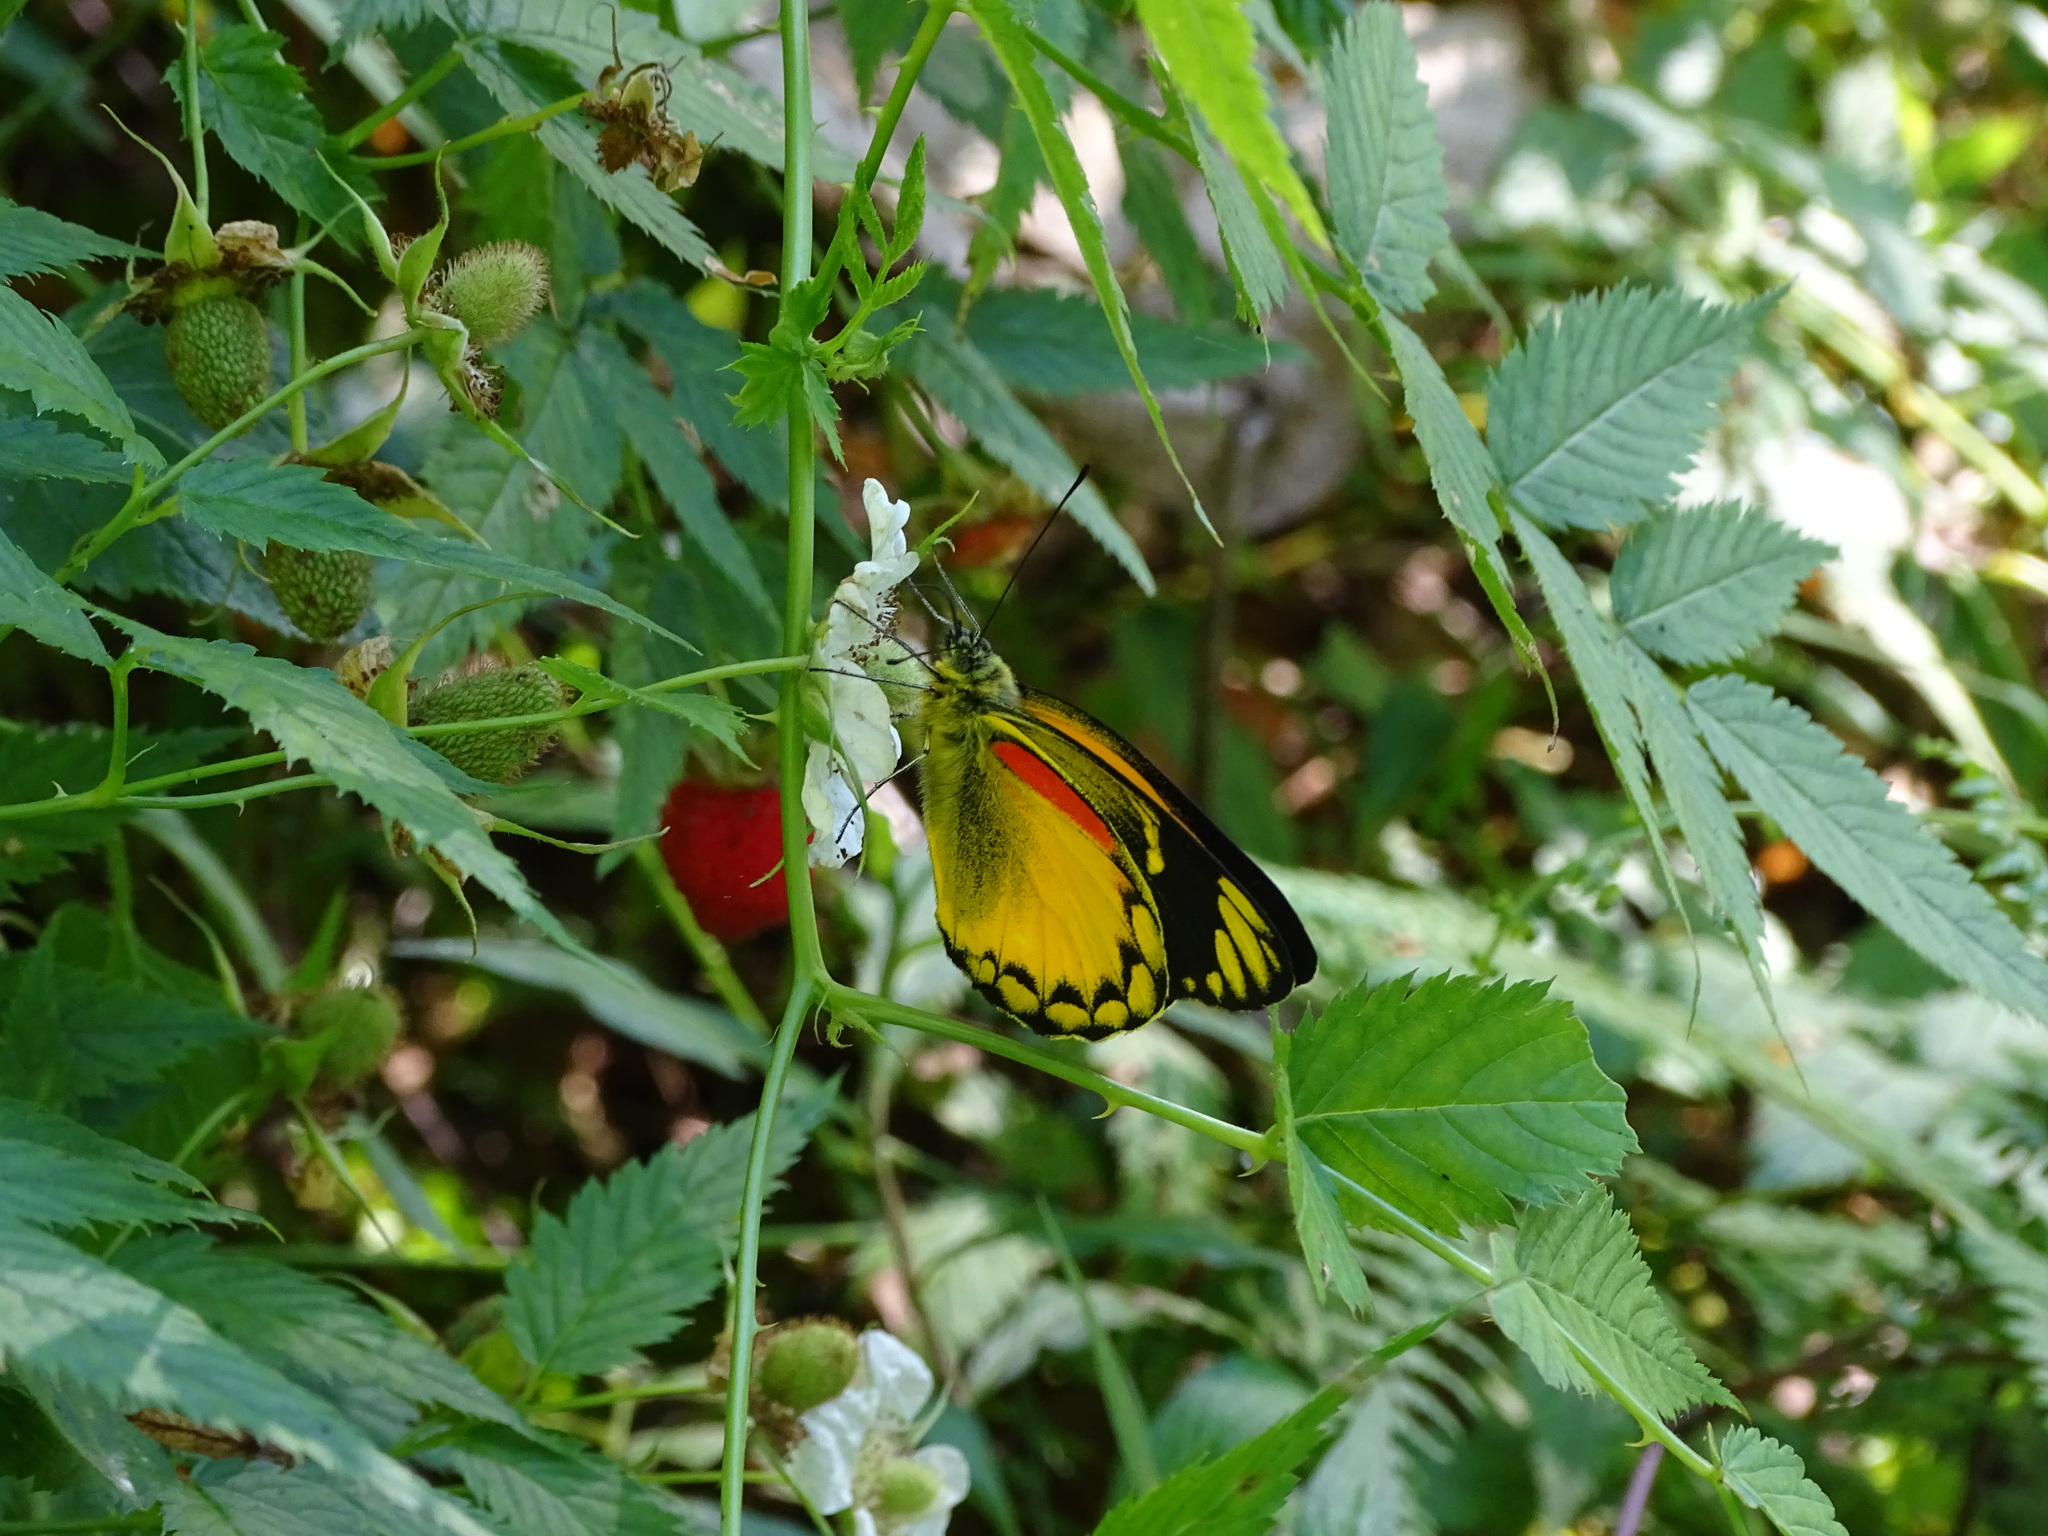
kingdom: Animalia
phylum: Arthropoda
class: Insecta
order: Lepidoptera
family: Pieridae
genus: Delias
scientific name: Delias aurantiaca
